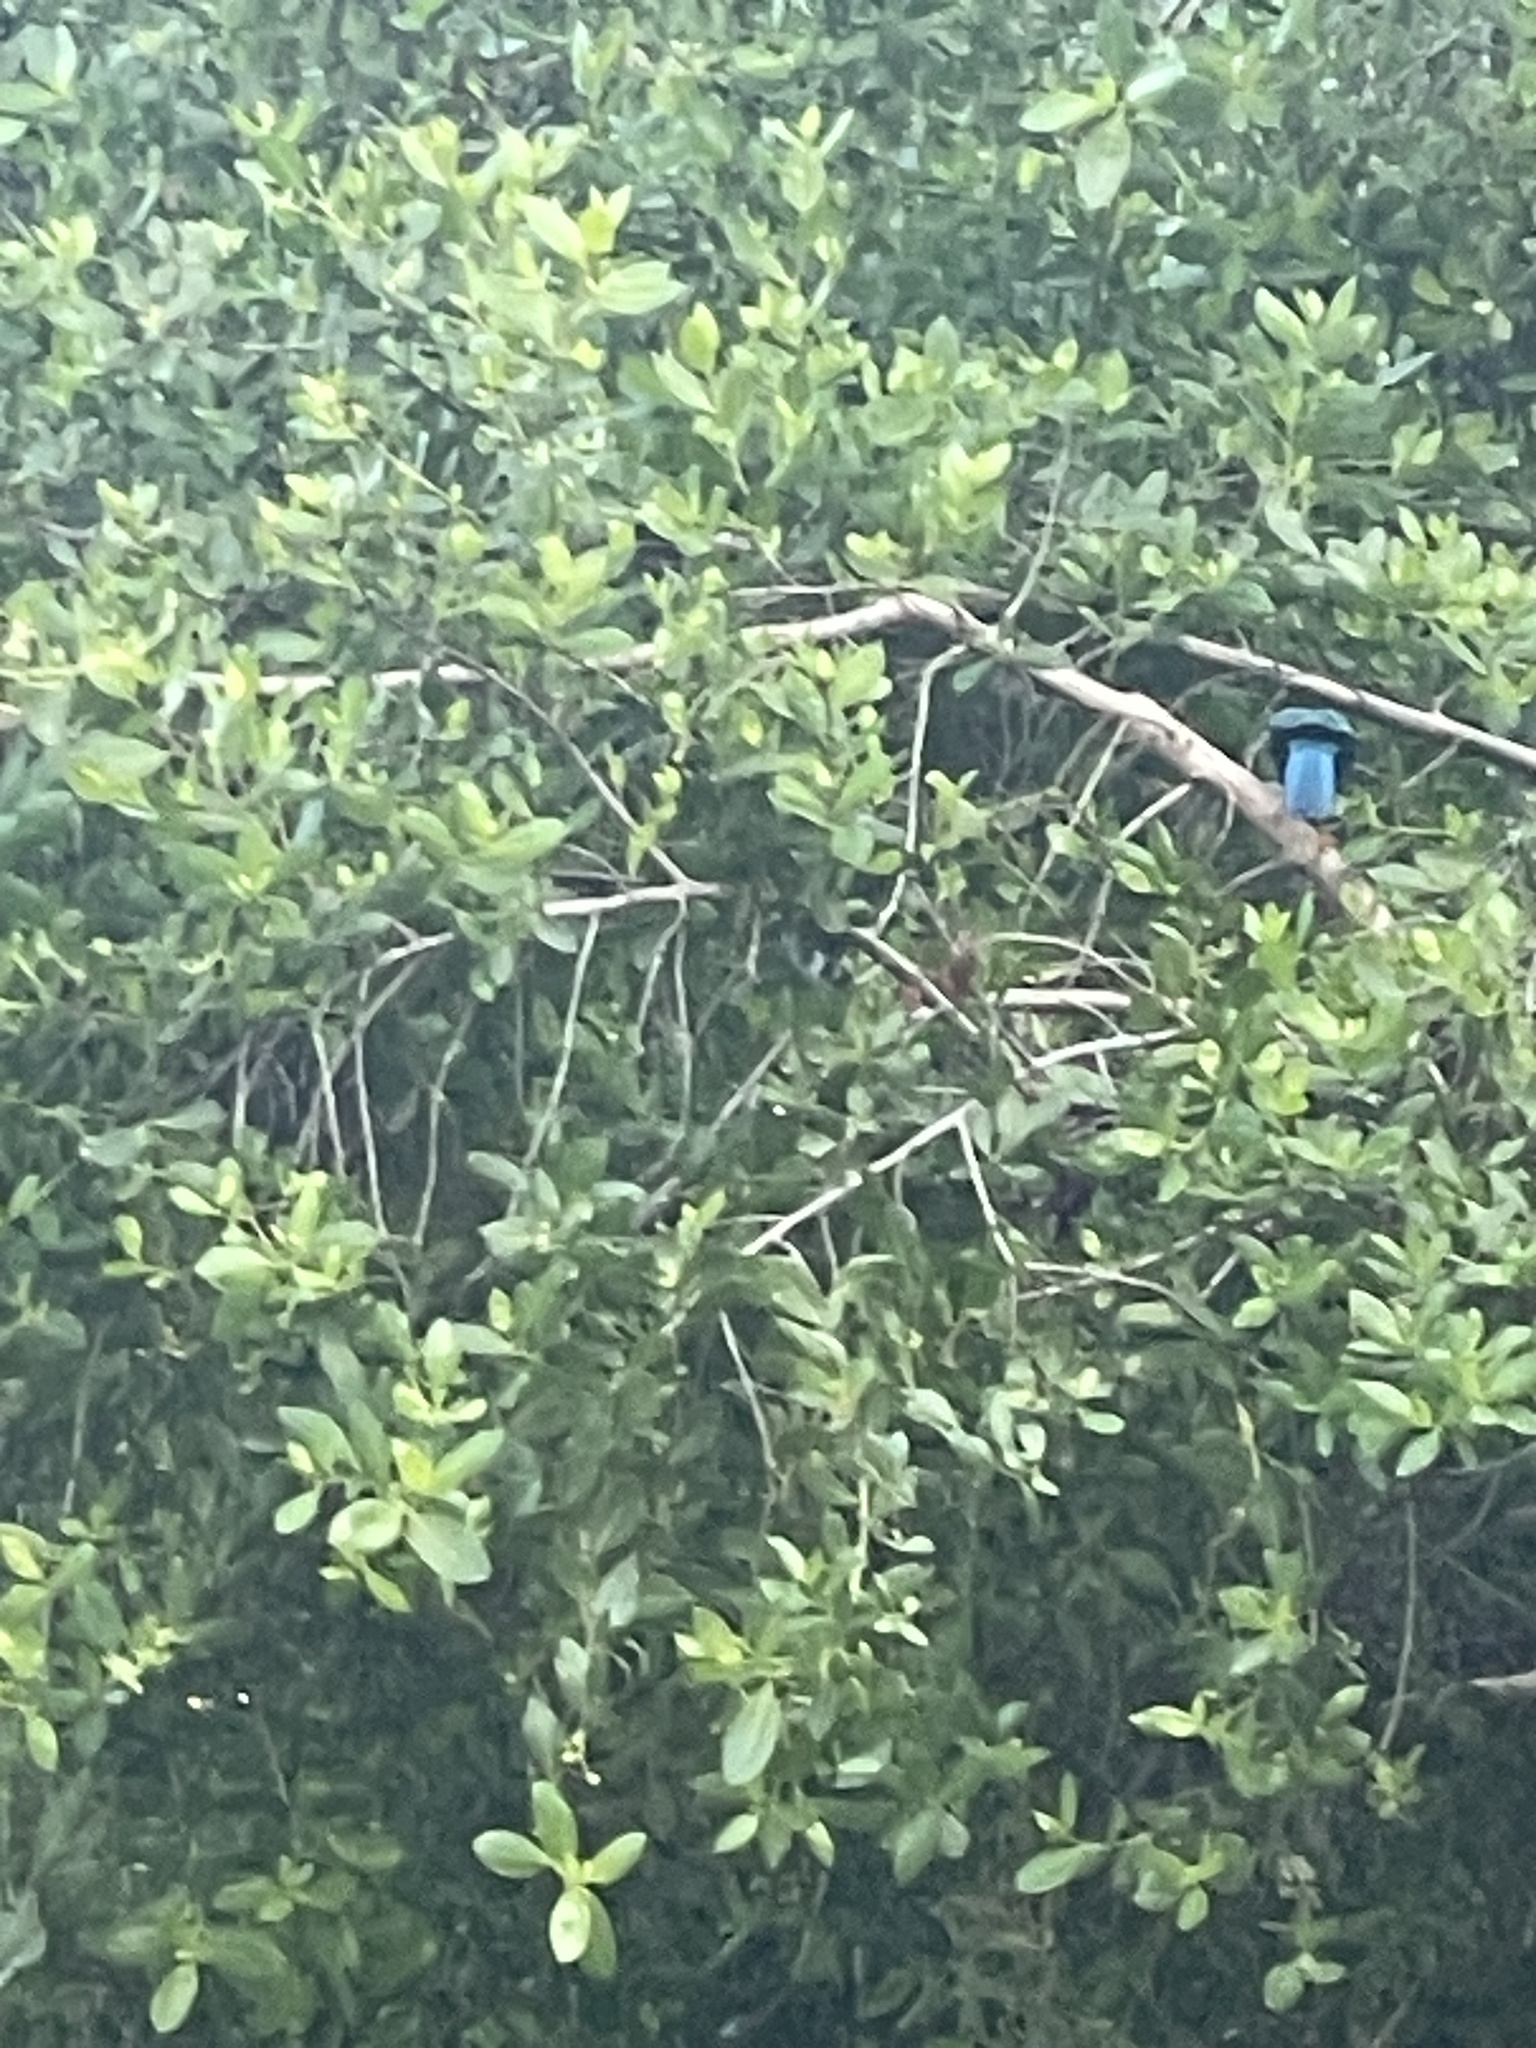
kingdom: Animalia
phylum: Chordata
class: Aves
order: Passeriformes
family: Corvidae
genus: Cyanocorax
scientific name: Cyanocorax yucatanicus
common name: Yucatan jay
